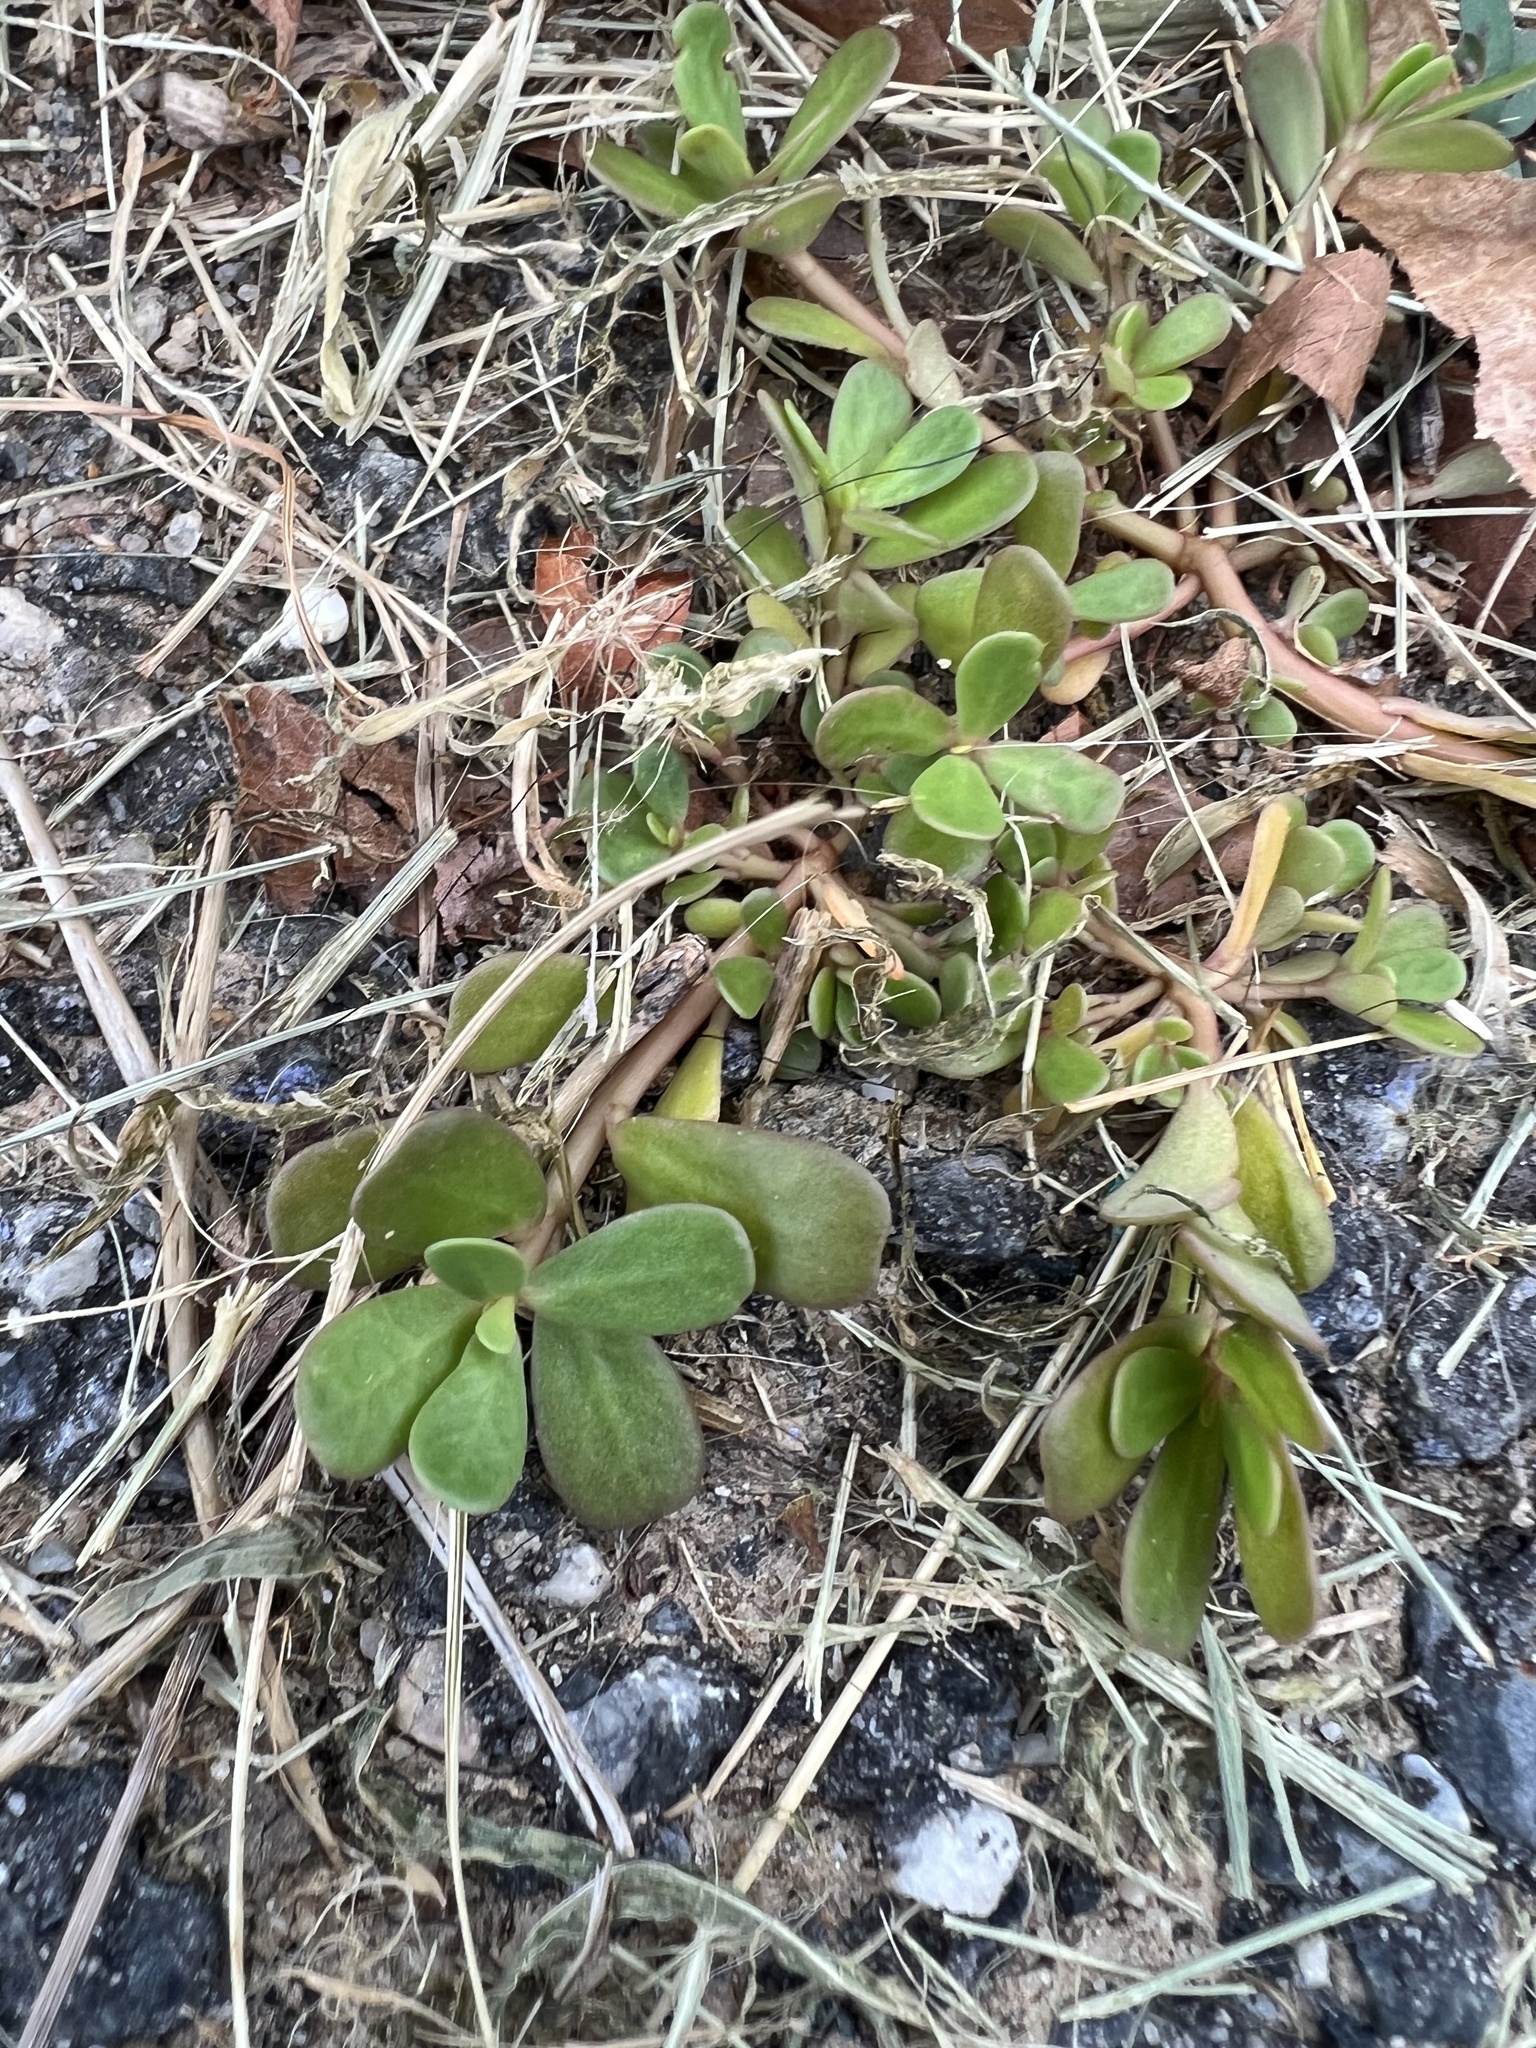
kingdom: Plantae
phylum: Tracheophyta
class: Magnoliopsida
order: Caryophyllales
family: Portulacaceae
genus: Portulaca
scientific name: Portulaca oleracea
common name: Common purslane
